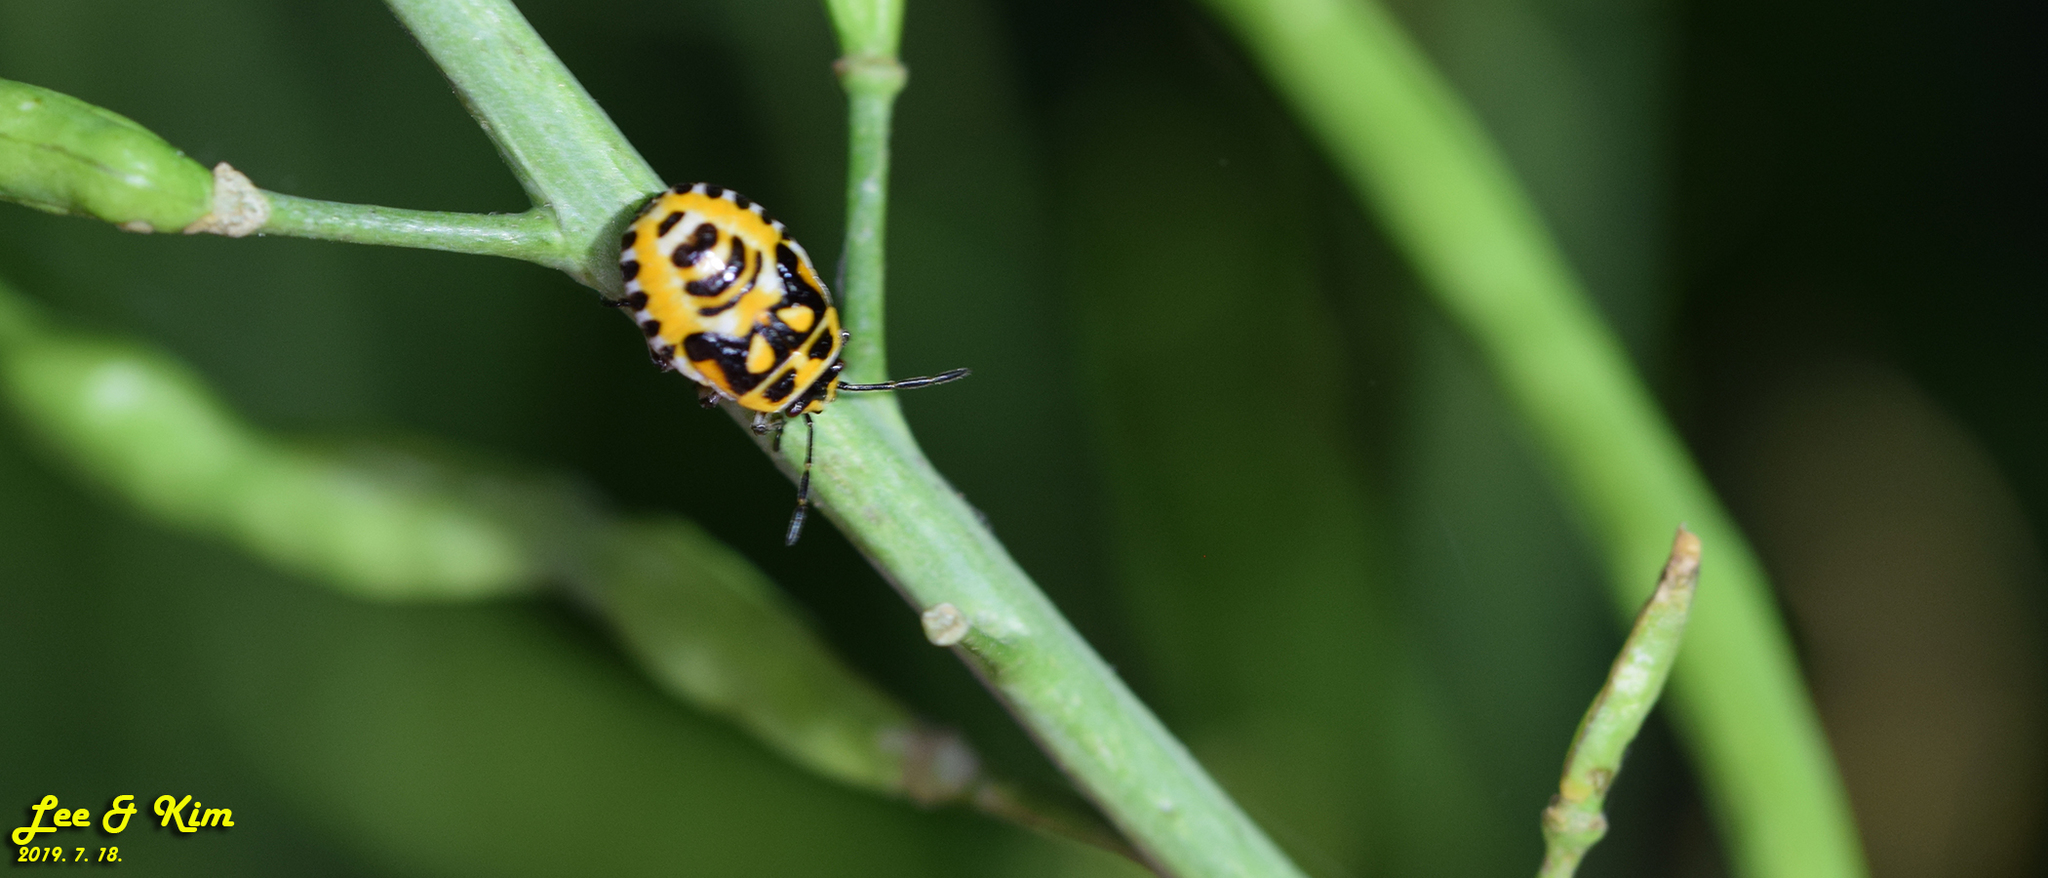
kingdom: Animalia
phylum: Arthropoda
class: Insecta
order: Hemiptera
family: Pentatomidae
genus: Eurydema
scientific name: Eurydema dominulus
